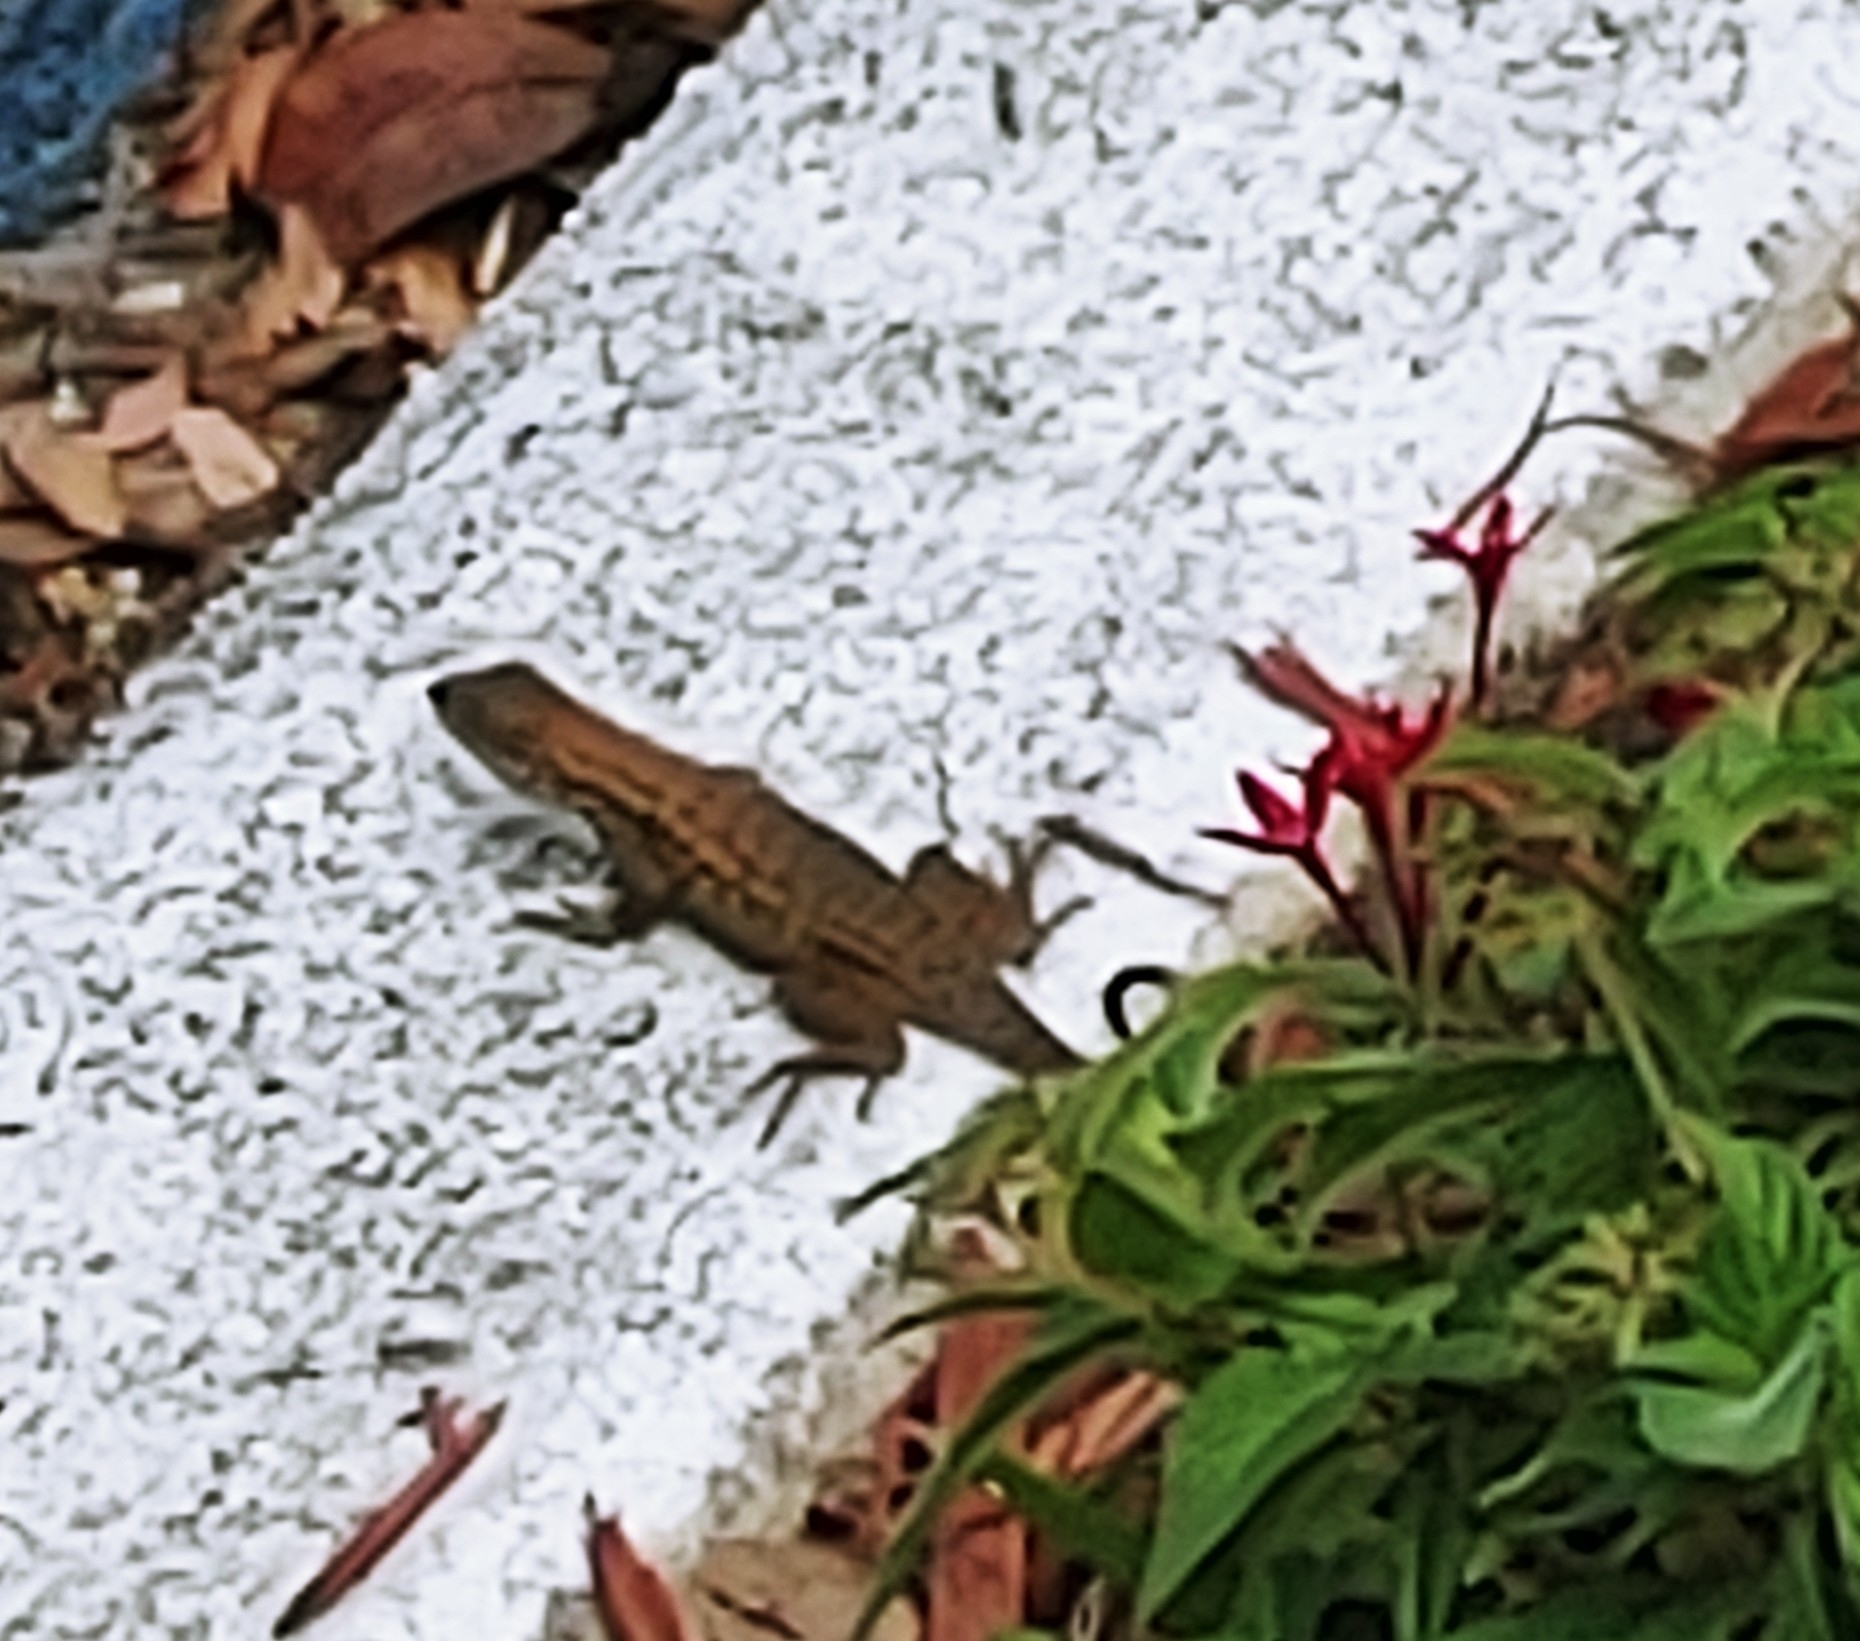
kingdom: Animalia
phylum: Chordata
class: Squamata
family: Leiocephalidae
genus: Leiocephalus
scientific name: Leiocephalus carinatus
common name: Northern curly-tailed lizard
